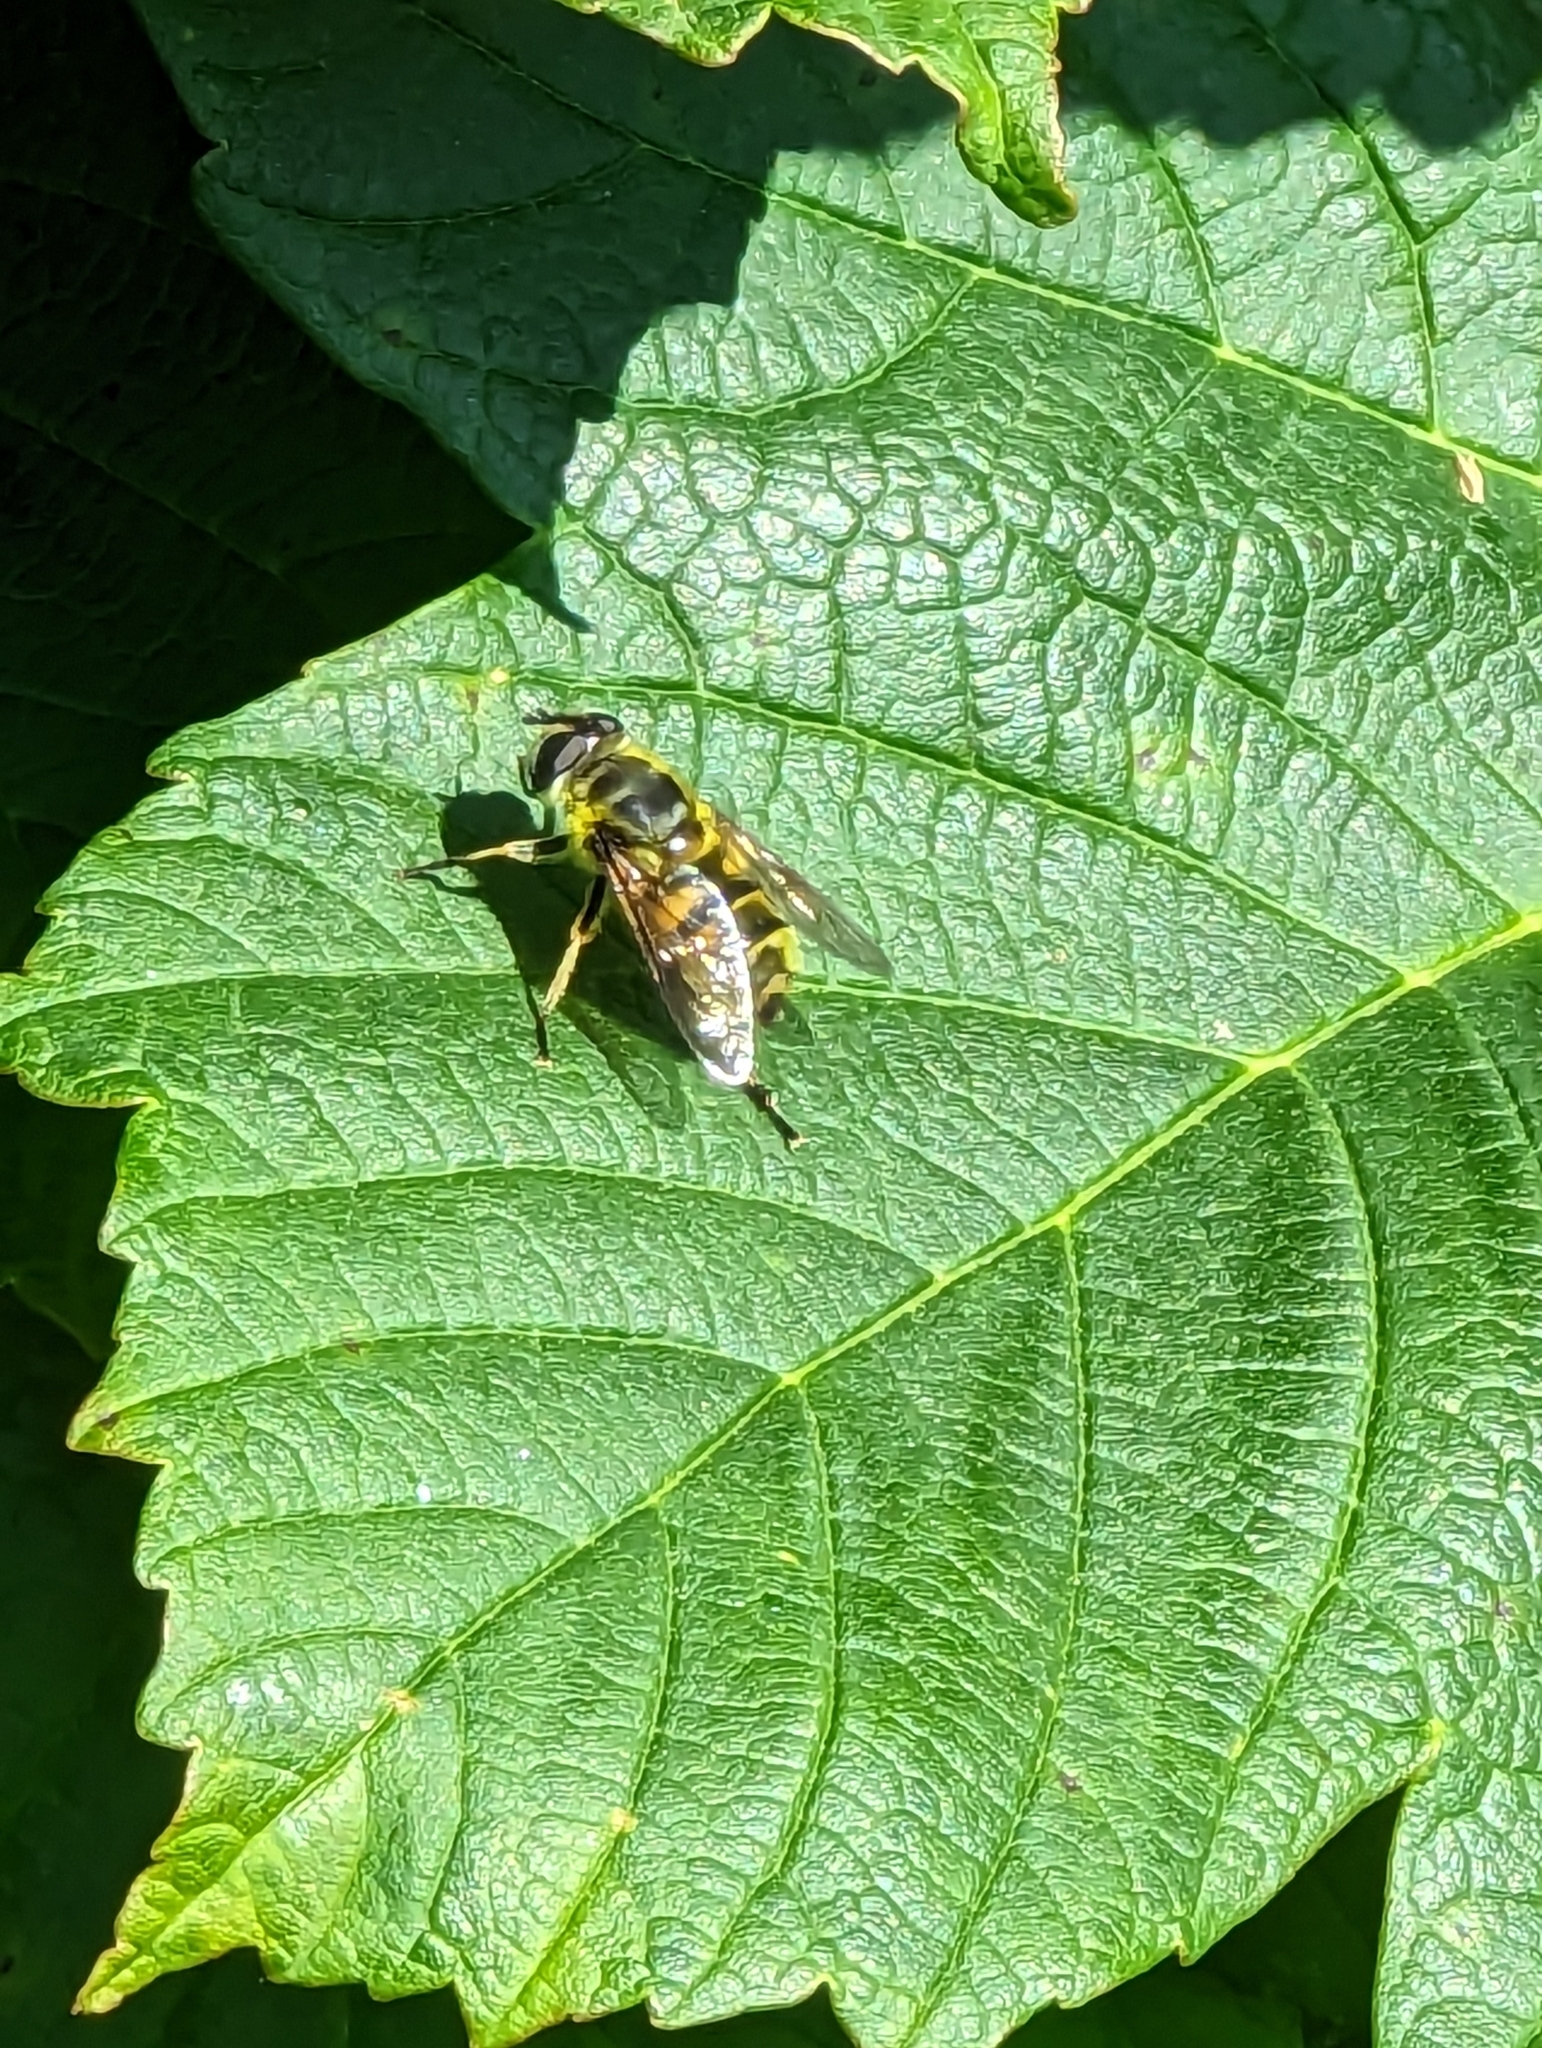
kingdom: Animalia
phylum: Arthropoda
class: Insecta
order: Diptera
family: Syrphidae
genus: Myathropa
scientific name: Myathropa florea
